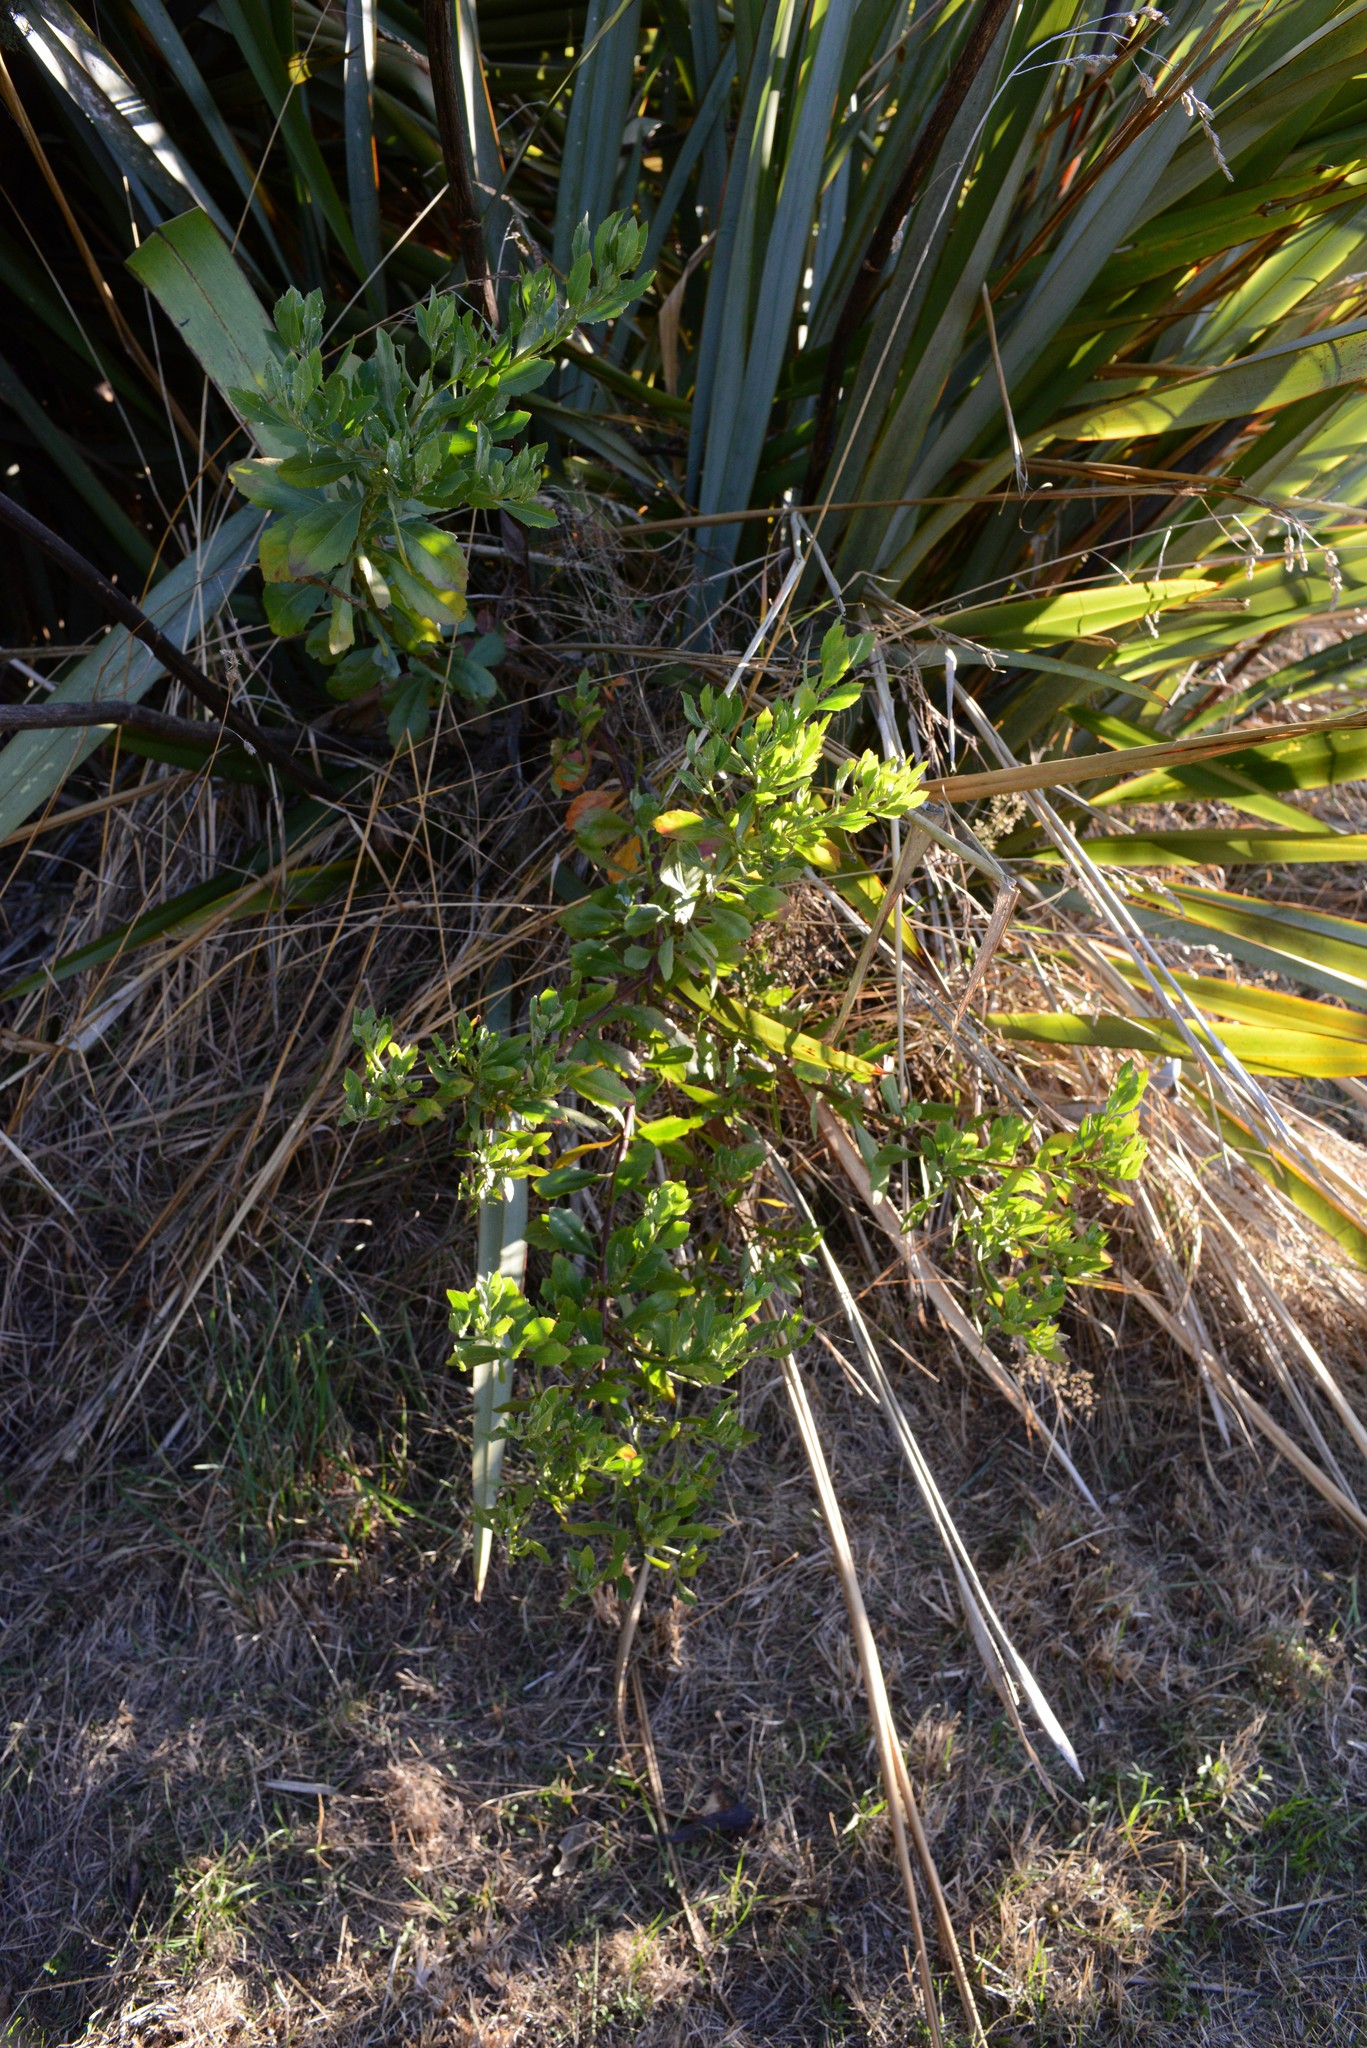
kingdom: Plantae
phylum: Tracheophyta
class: Magnoliopsida
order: Asterales
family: Asteraceae
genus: Osteospermum
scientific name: Osteospermum moniliferum
